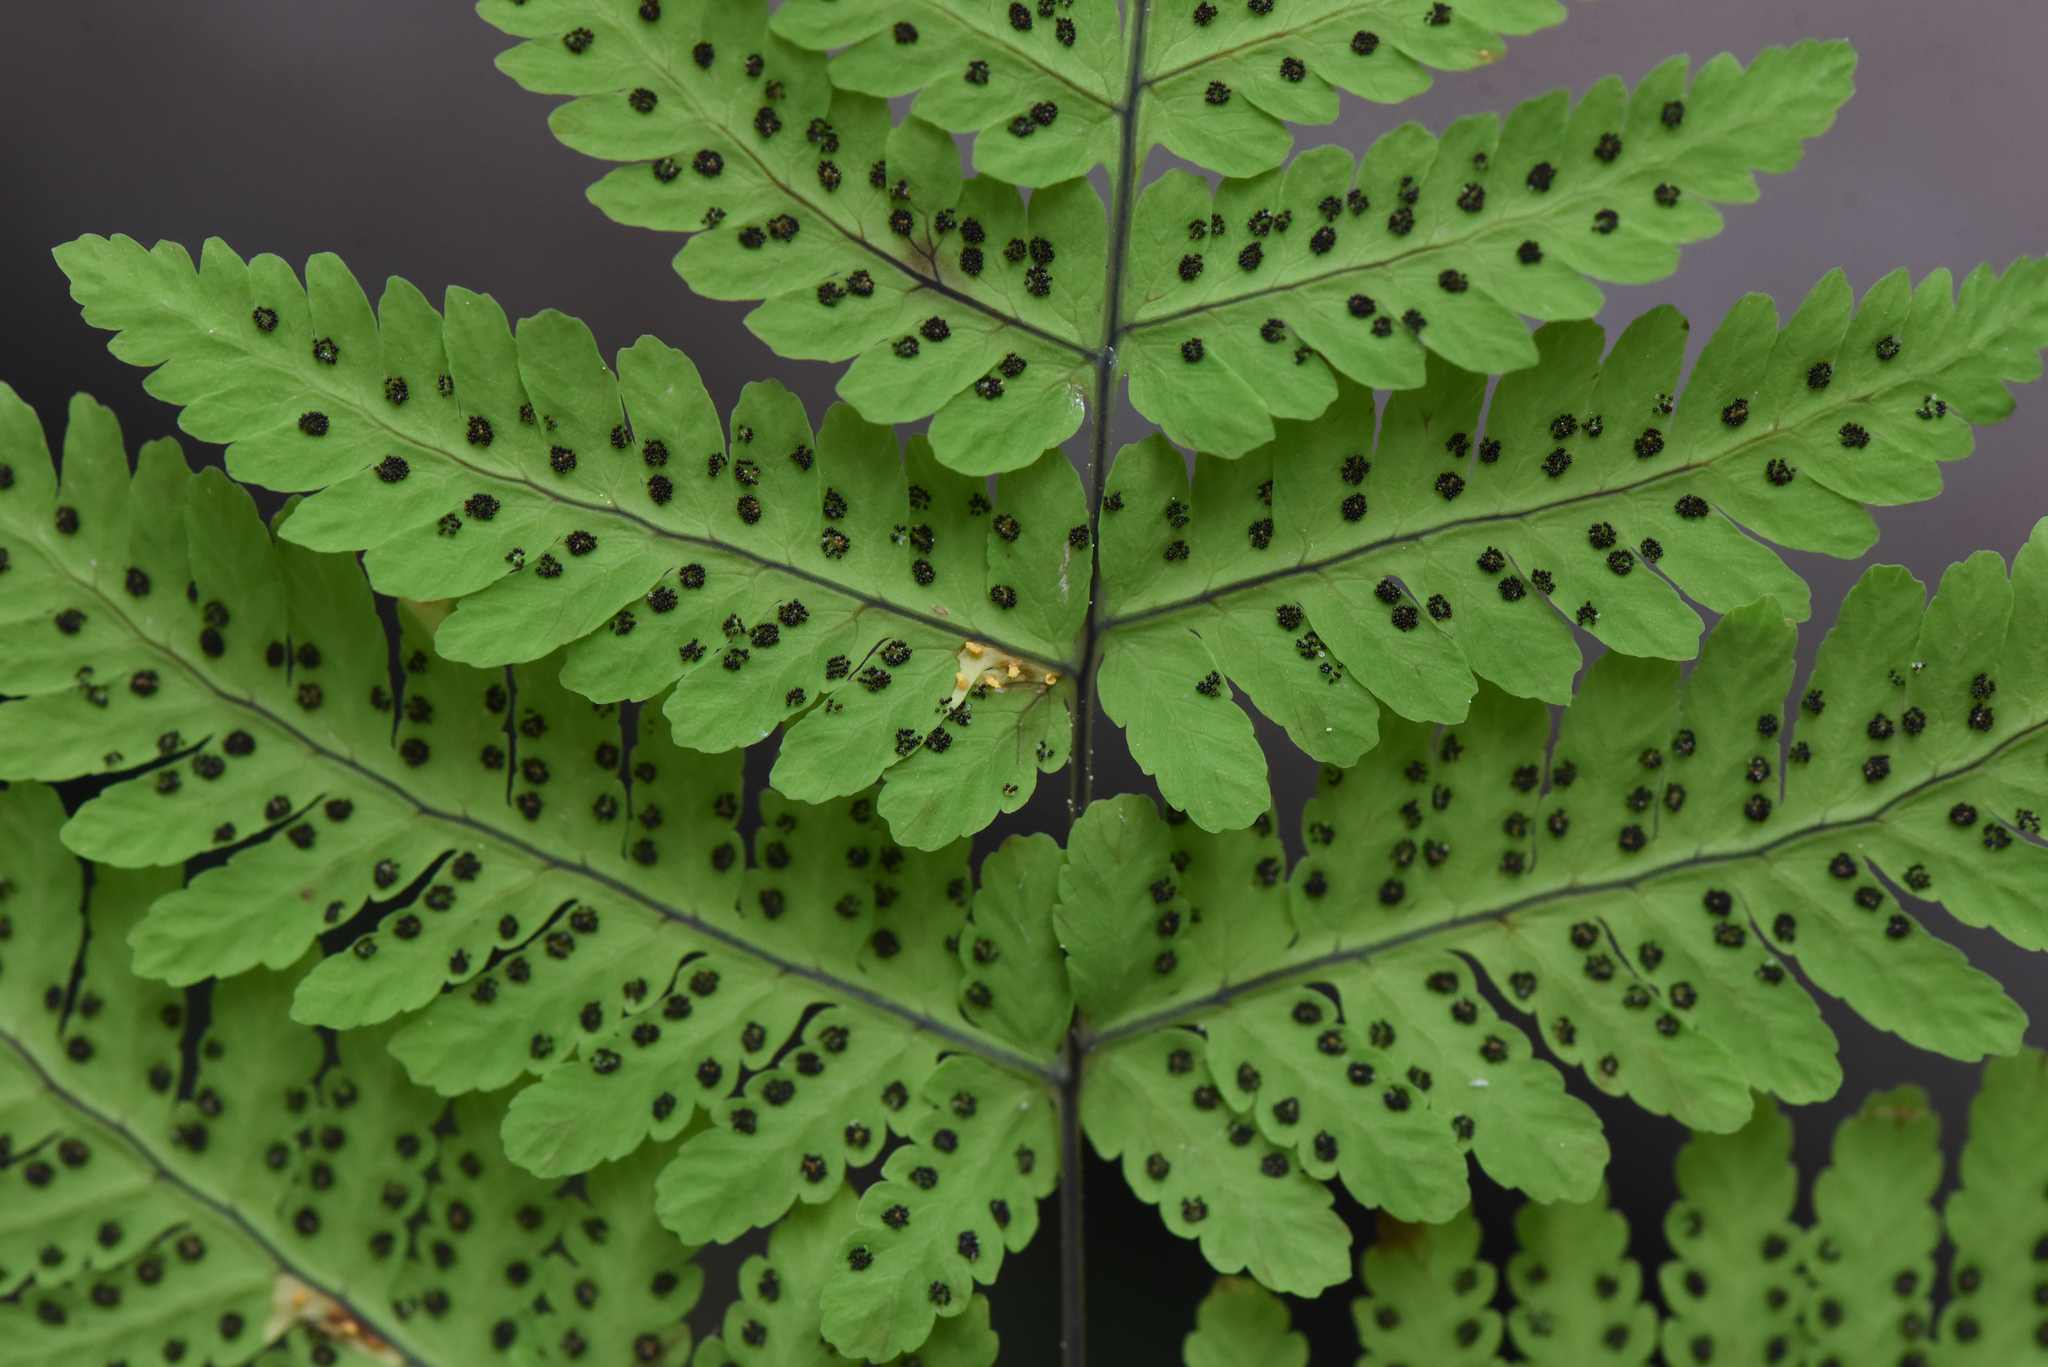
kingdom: Plantae
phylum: Tracheophyta
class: Polypodiopsida
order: Polypodiales
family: Cystopteridaceae
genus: Gymnocarpium
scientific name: Gymnocarpium disjunctum
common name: Western oak fern
